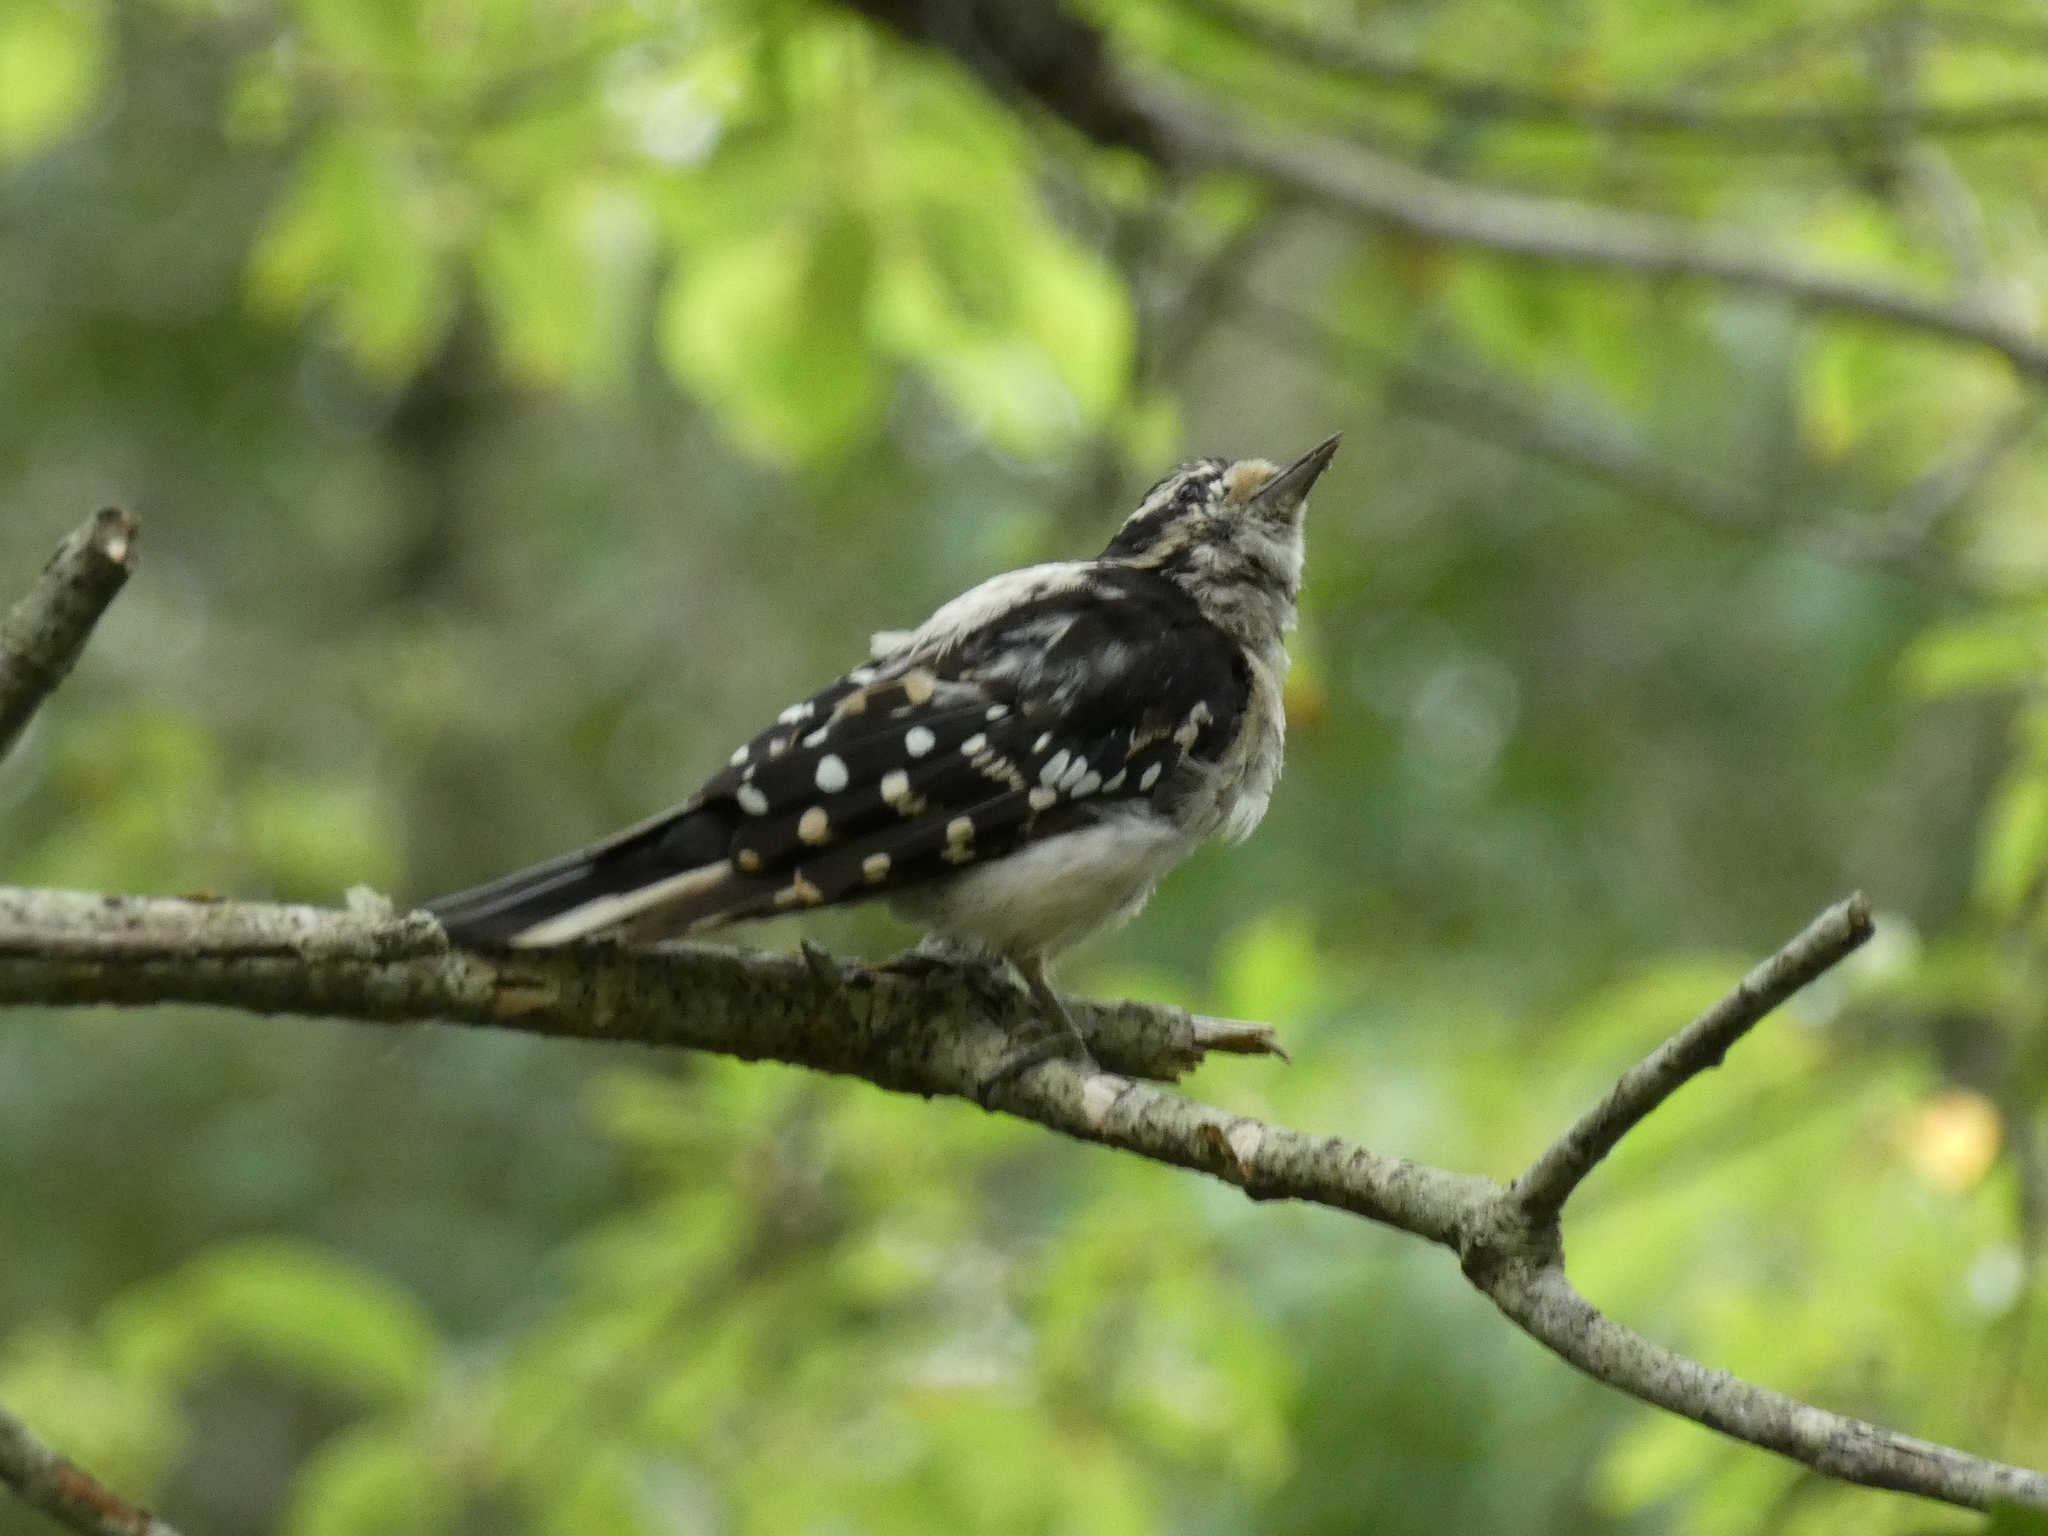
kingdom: Animalia
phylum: Chordata
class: Aves
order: Piciformes
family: Picidae
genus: Dryobates
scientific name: Dryobates pubescens
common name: Downy woodpecker
